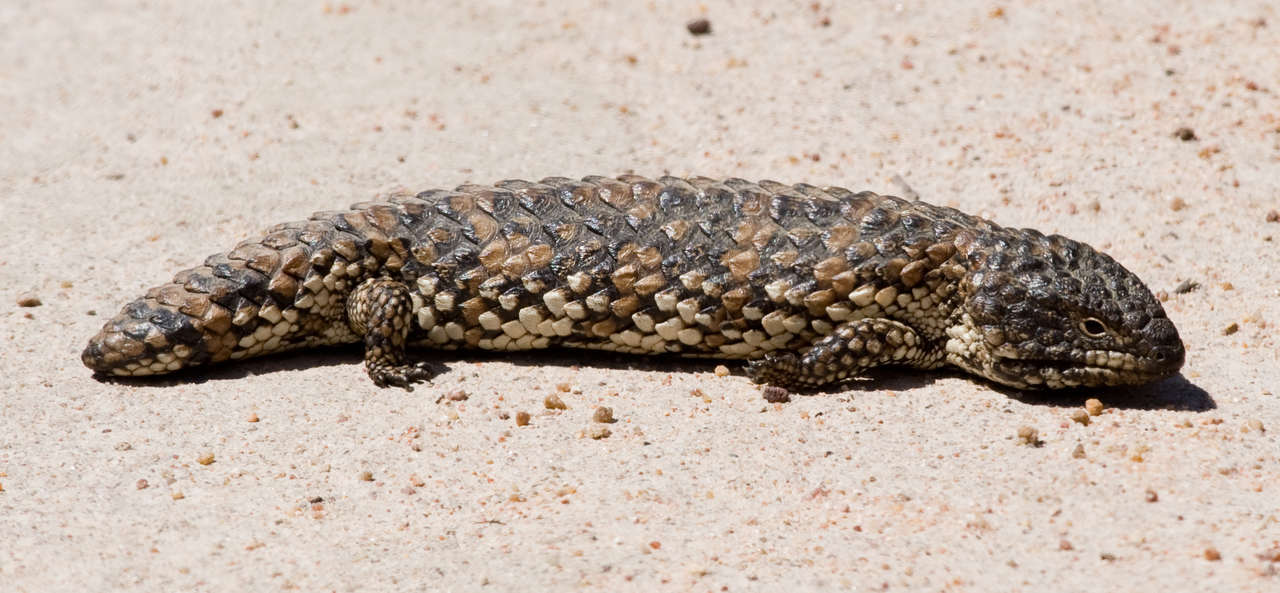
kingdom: Animalia
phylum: Chordata
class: Squamata
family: Scincidae
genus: Tiliqua
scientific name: Tiliqua rugosa
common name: Pinecone lizard
